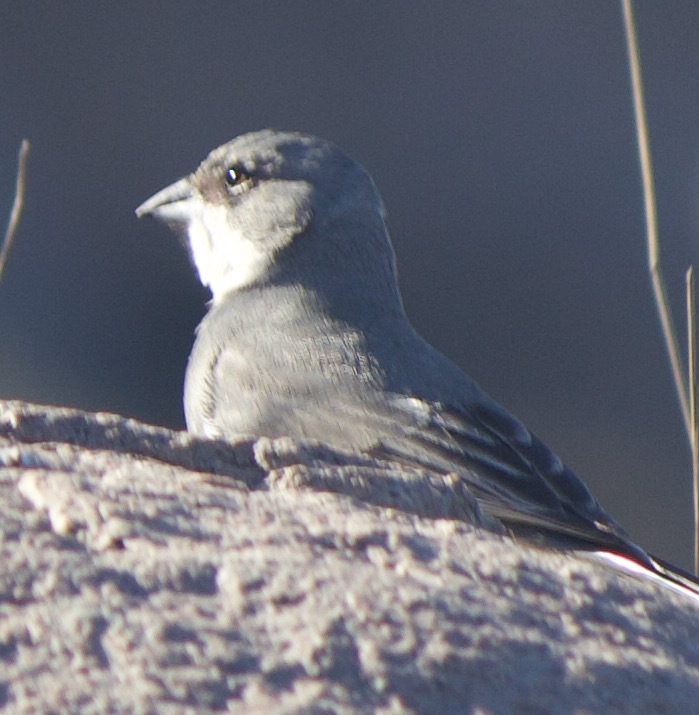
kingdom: Animalia
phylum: Chordata
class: Aves
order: Passeriformes
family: Thraupidae
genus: Diuca
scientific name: Diuca diuca
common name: Common diuca finch
